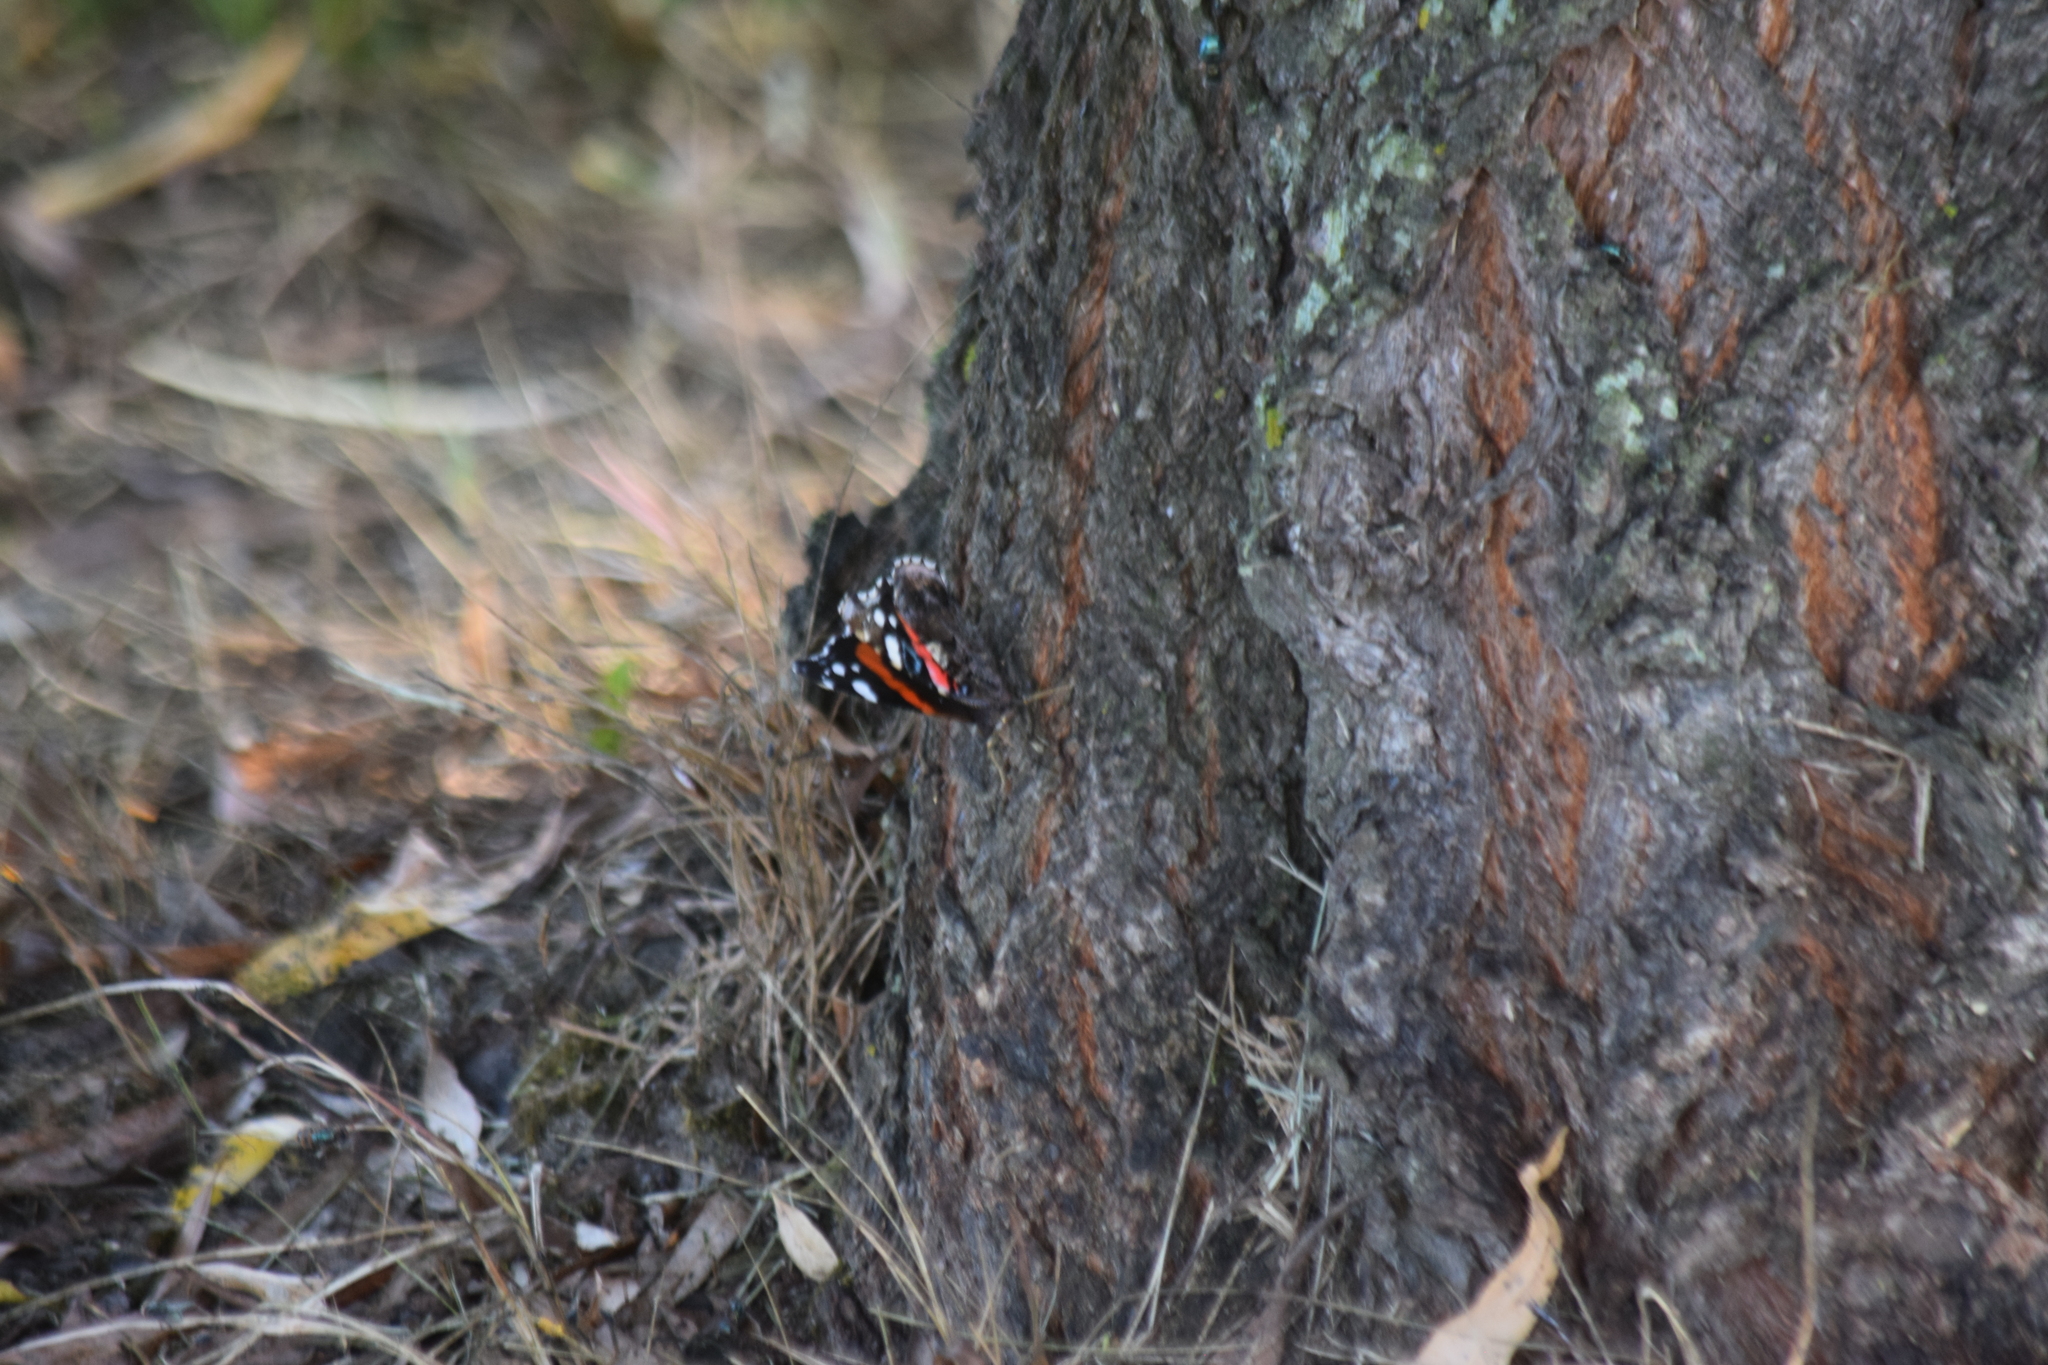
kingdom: Animalia
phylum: Arthropoda
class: Insecta
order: Lepidoptera
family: Nymphalidae
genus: Vanessa
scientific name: Vanessa atalanta
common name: Red admiral
